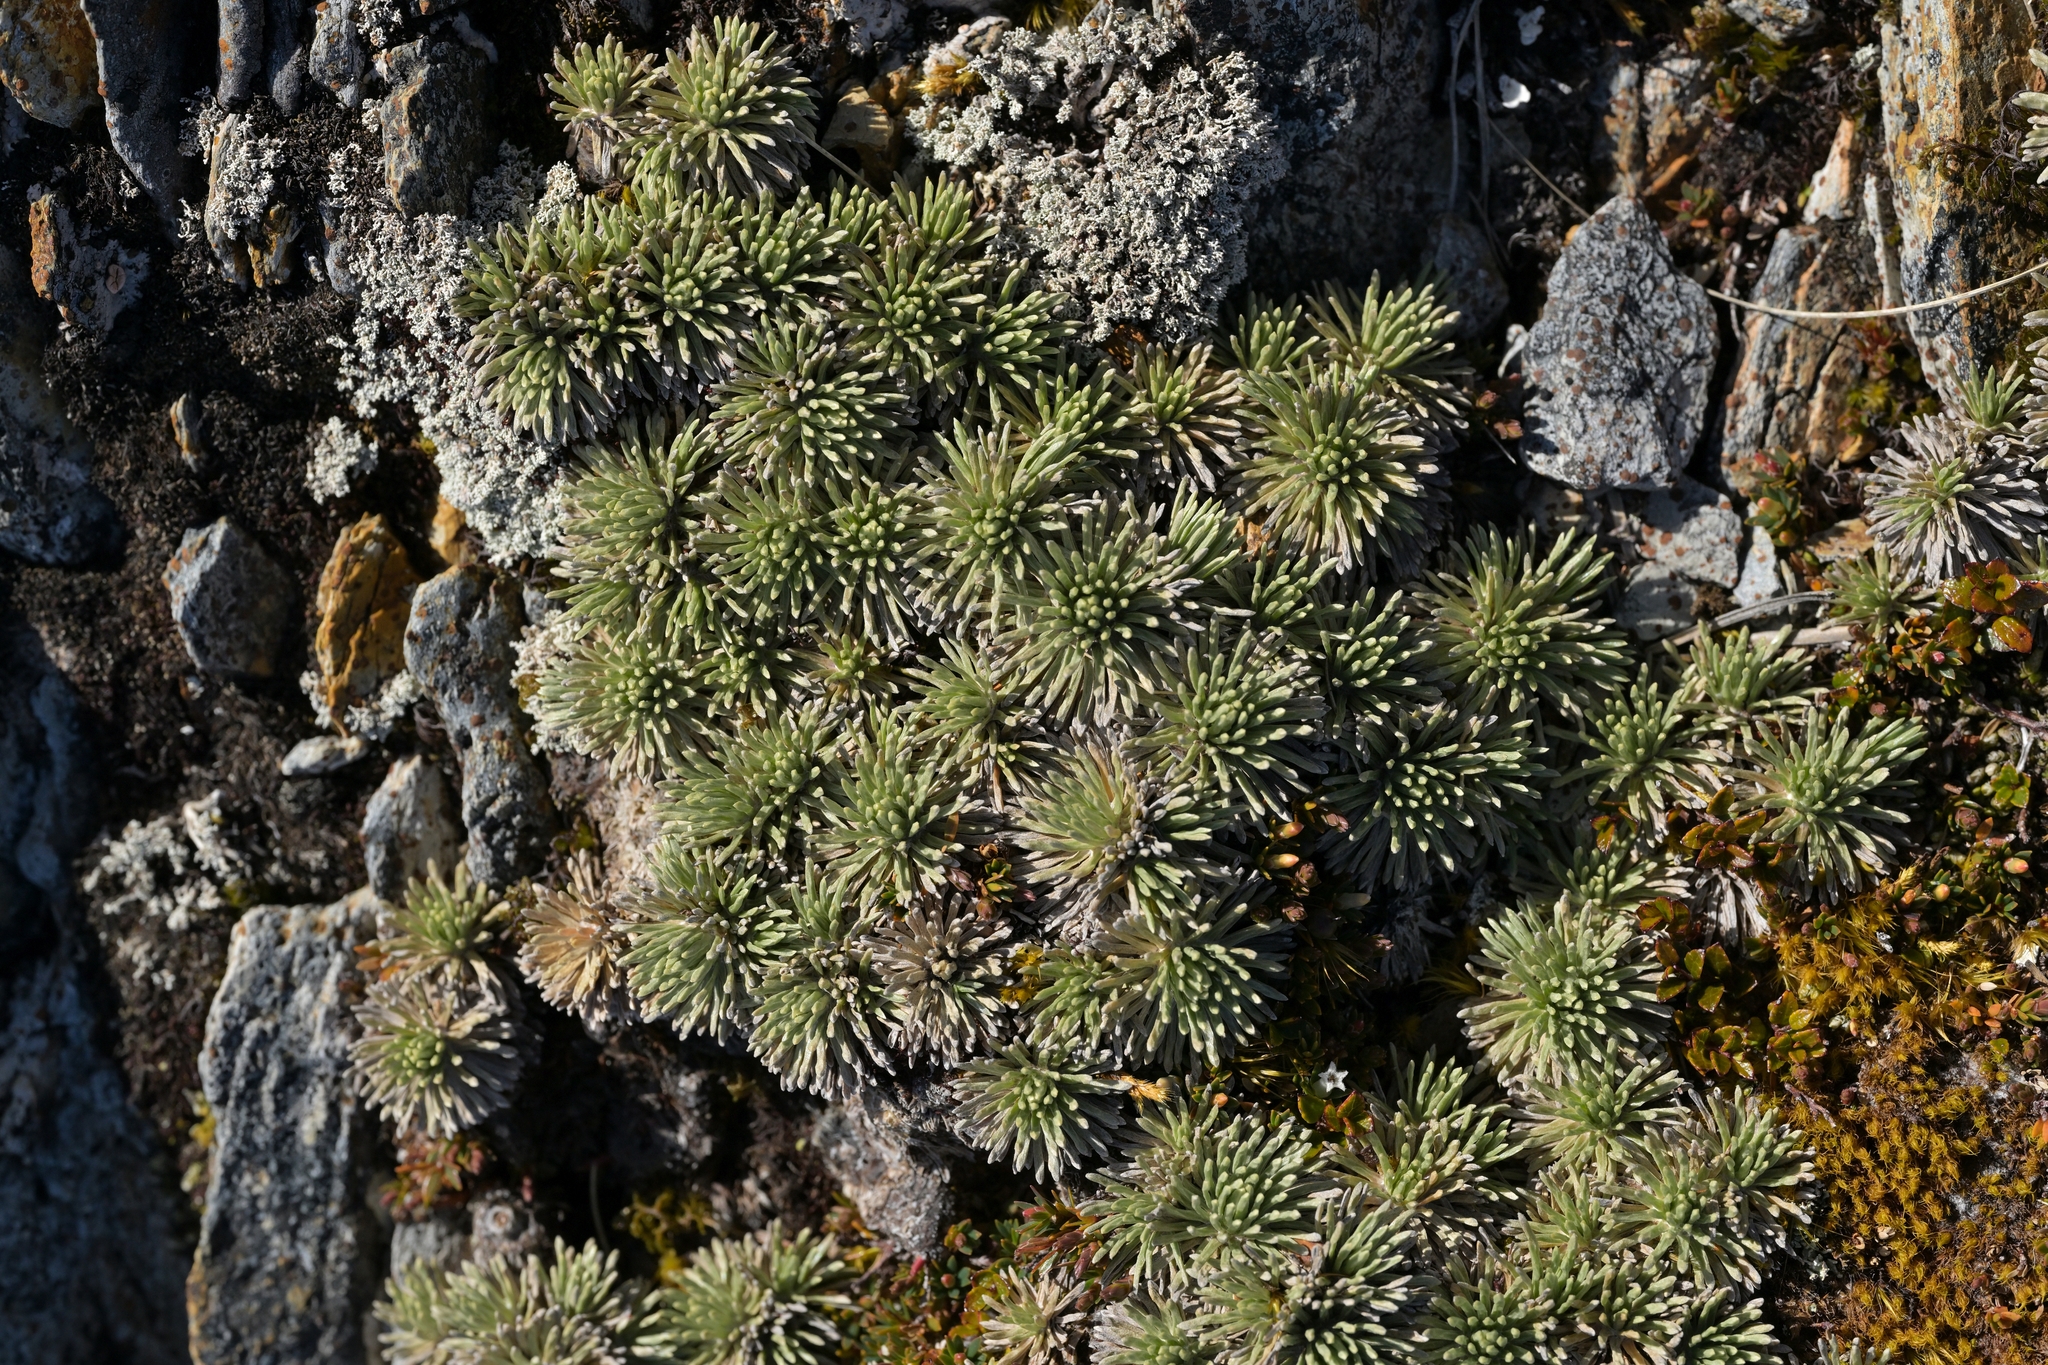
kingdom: Plantae
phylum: Tracheophyta
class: Magnoliopsida
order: Asterales
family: Asteraceae
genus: Celmisia
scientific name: Celmisia sessiliflora
